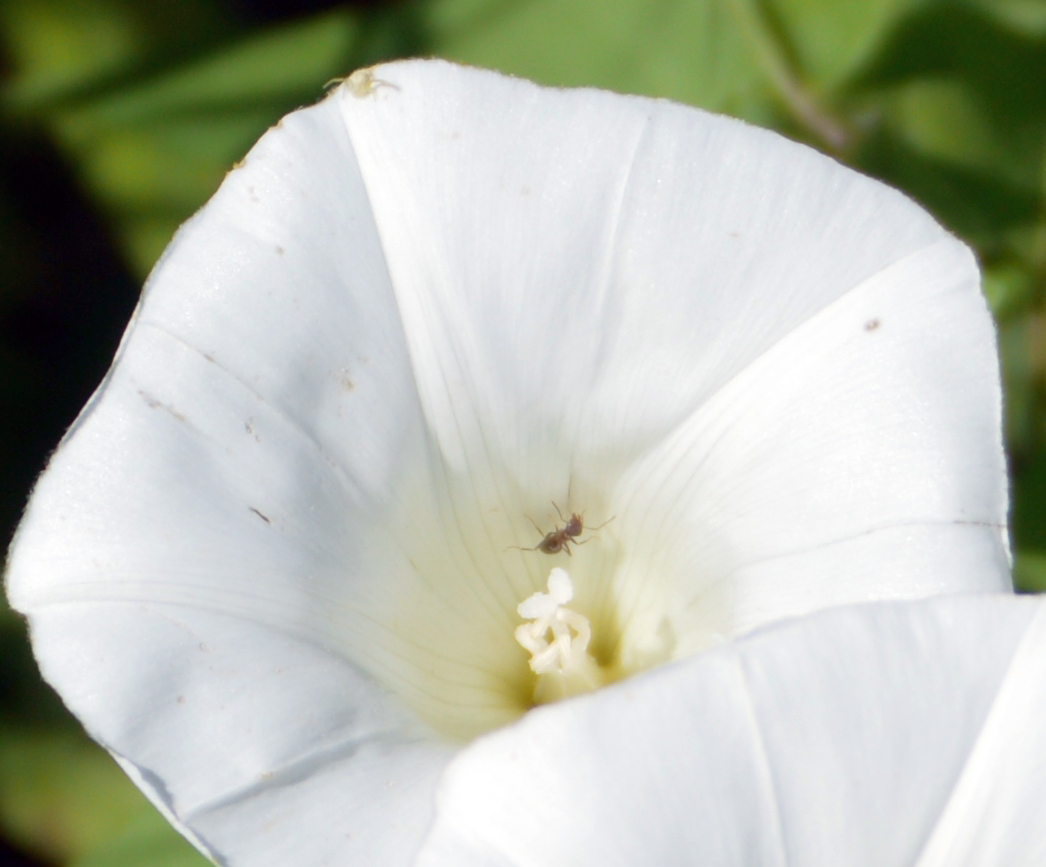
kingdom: Animalia
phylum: Arthropoda
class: Insecta
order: Hymenoptera
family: Formicidae
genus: Lasius
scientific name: Lasius
